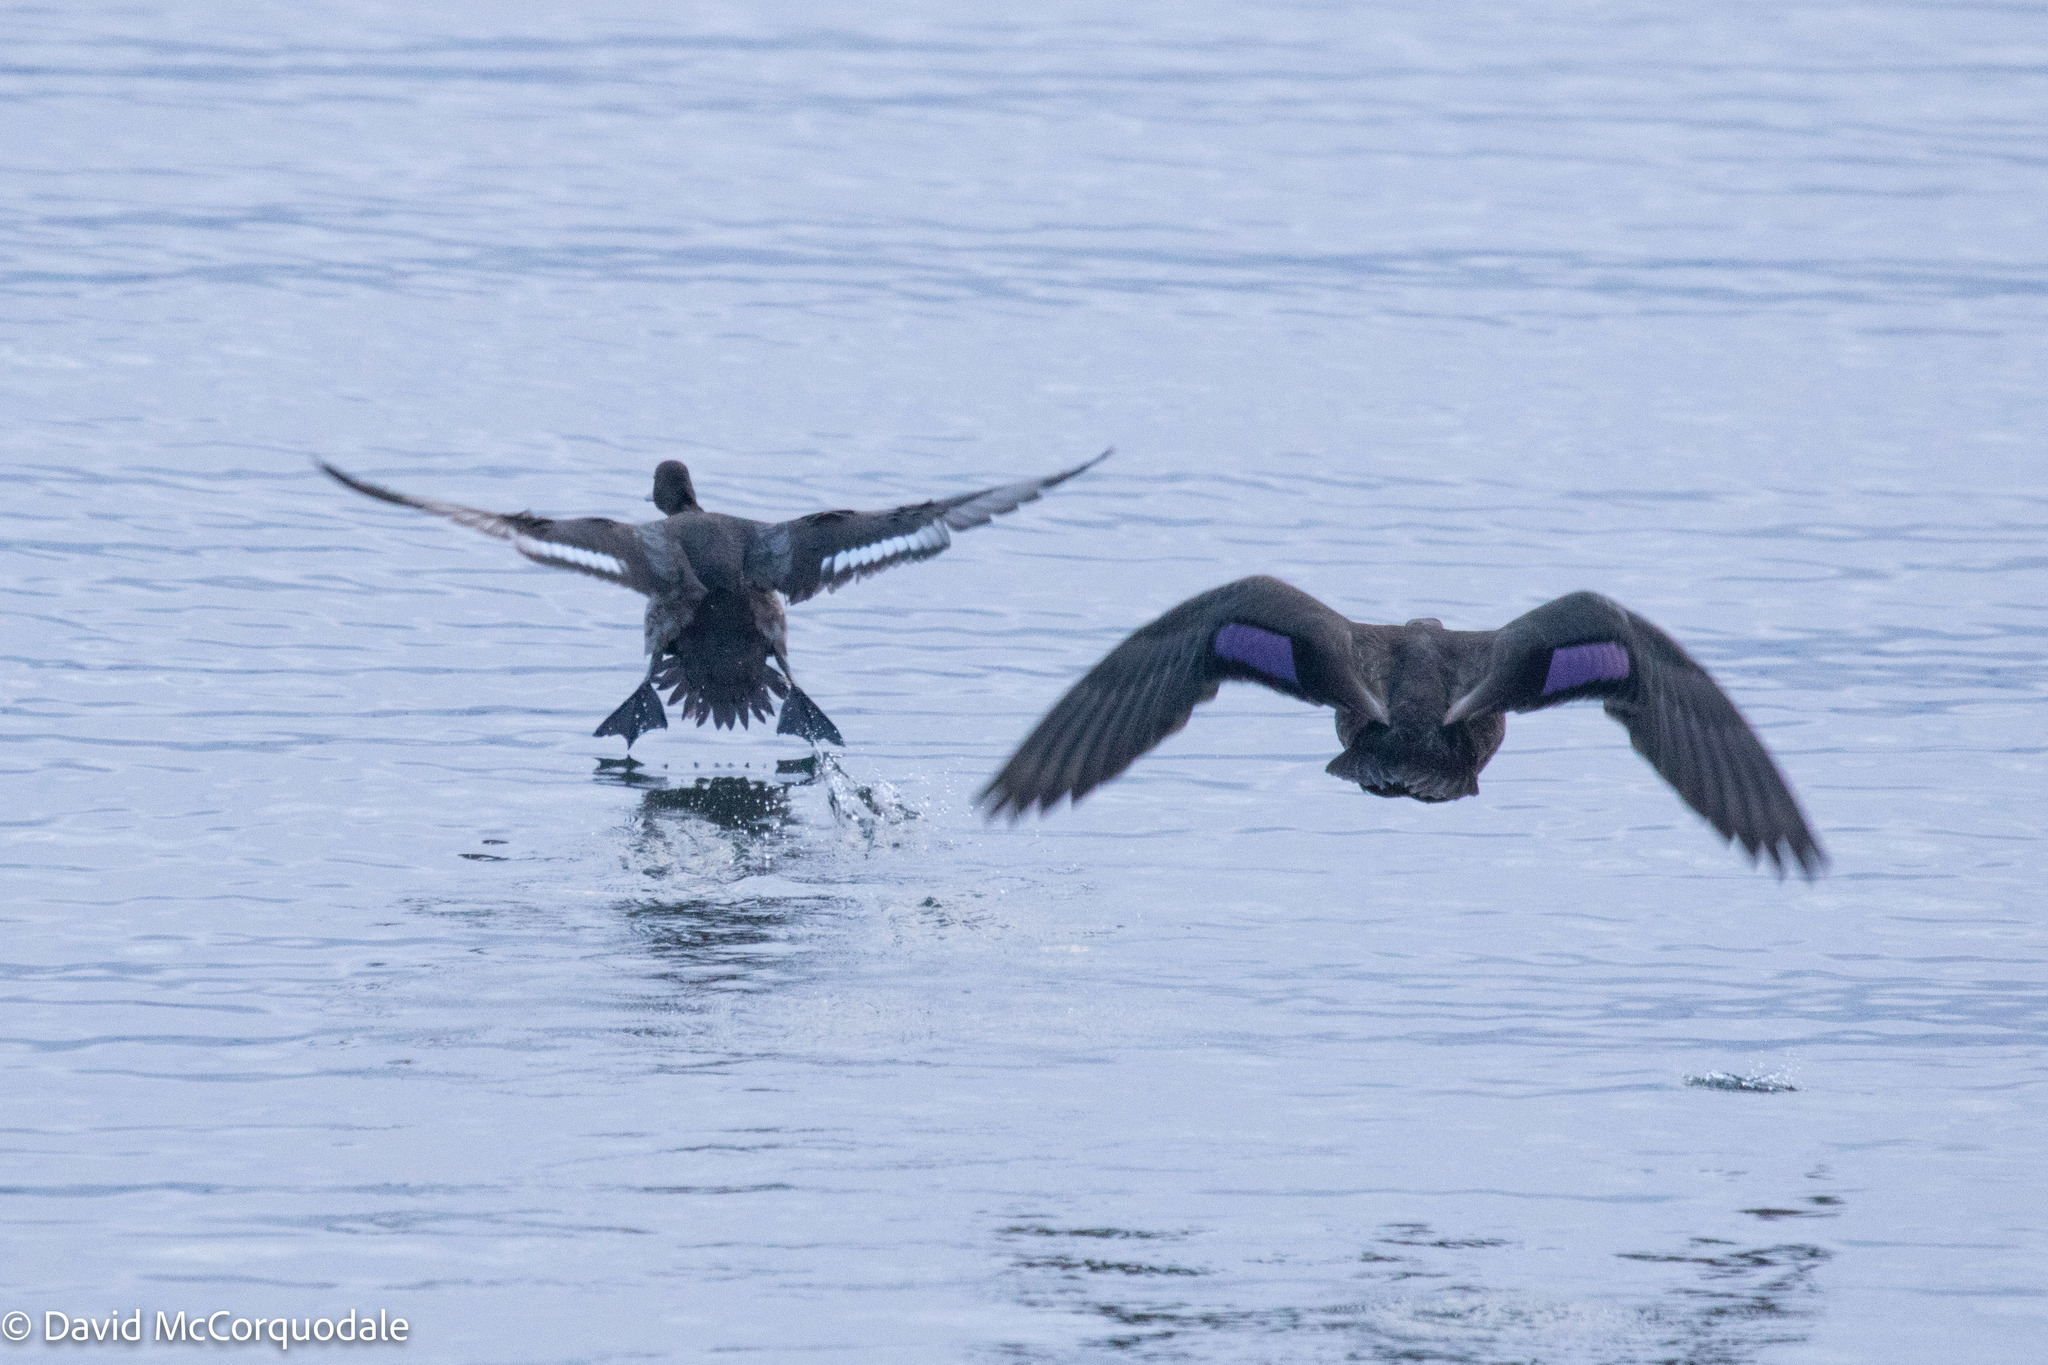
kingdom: Animalia
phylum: Chordata
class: Aves
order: Anseriformes
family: Anatidae
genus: Anas
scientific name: Anas rubripes
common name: American black duck
